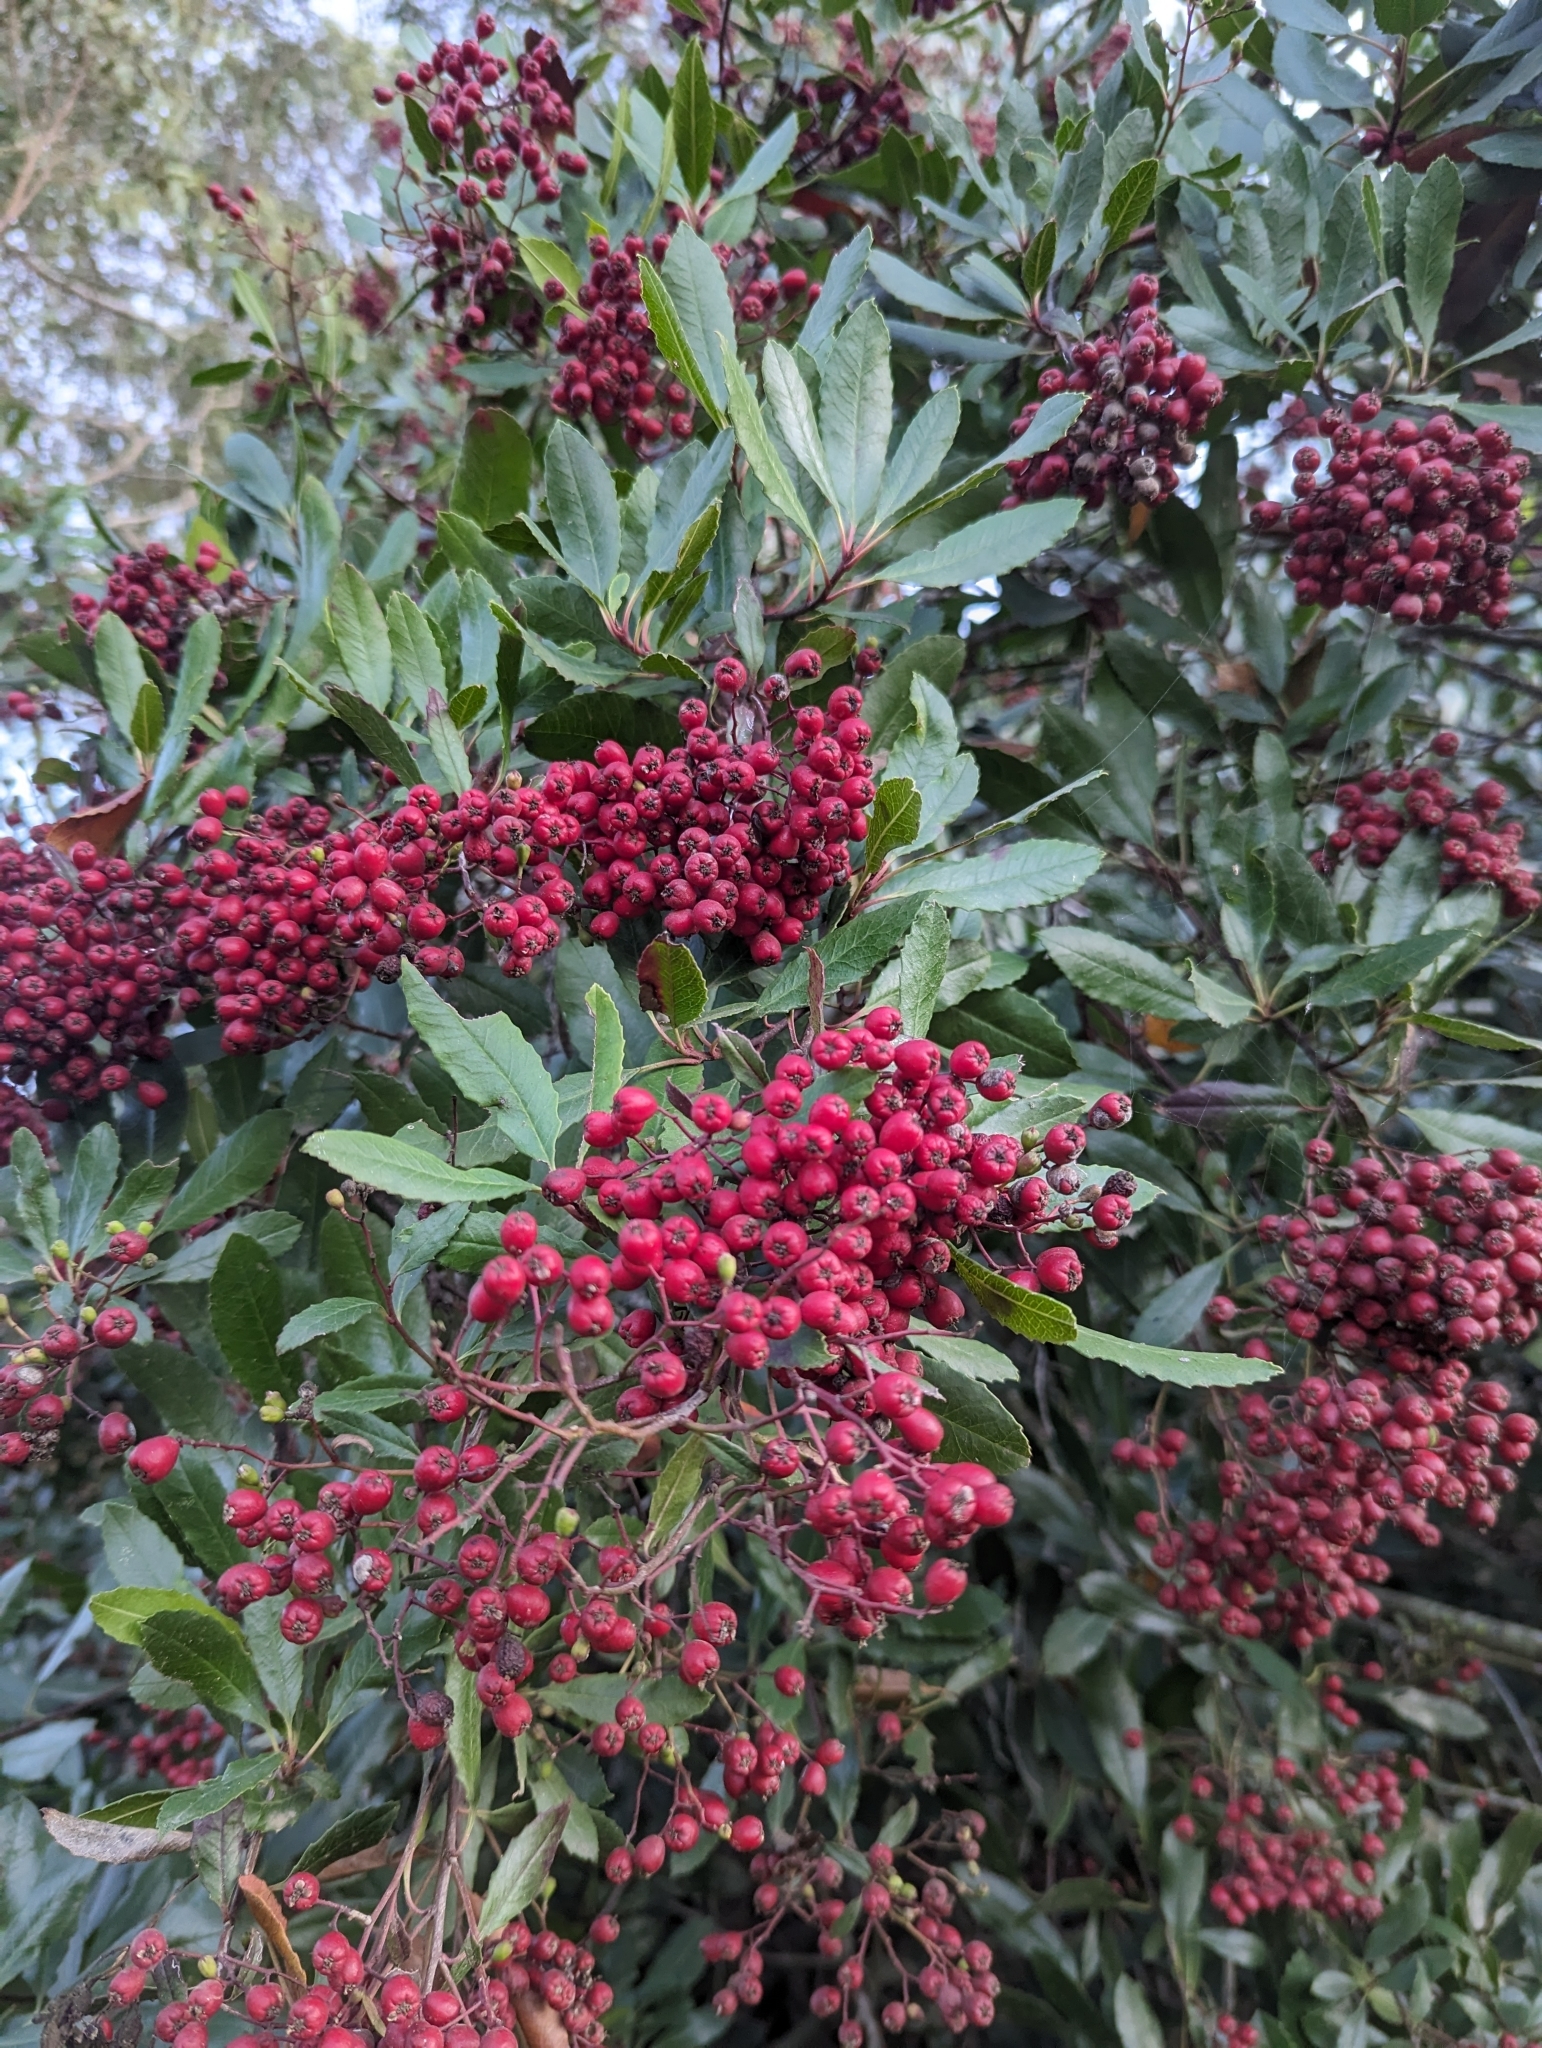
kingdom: Plantae
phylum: Tracheophyta
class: Magnoliopsida
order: Rosales
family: Rosaceae
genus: Heteromeles
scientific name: Heteromeles arbutifolia
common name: California-holly
